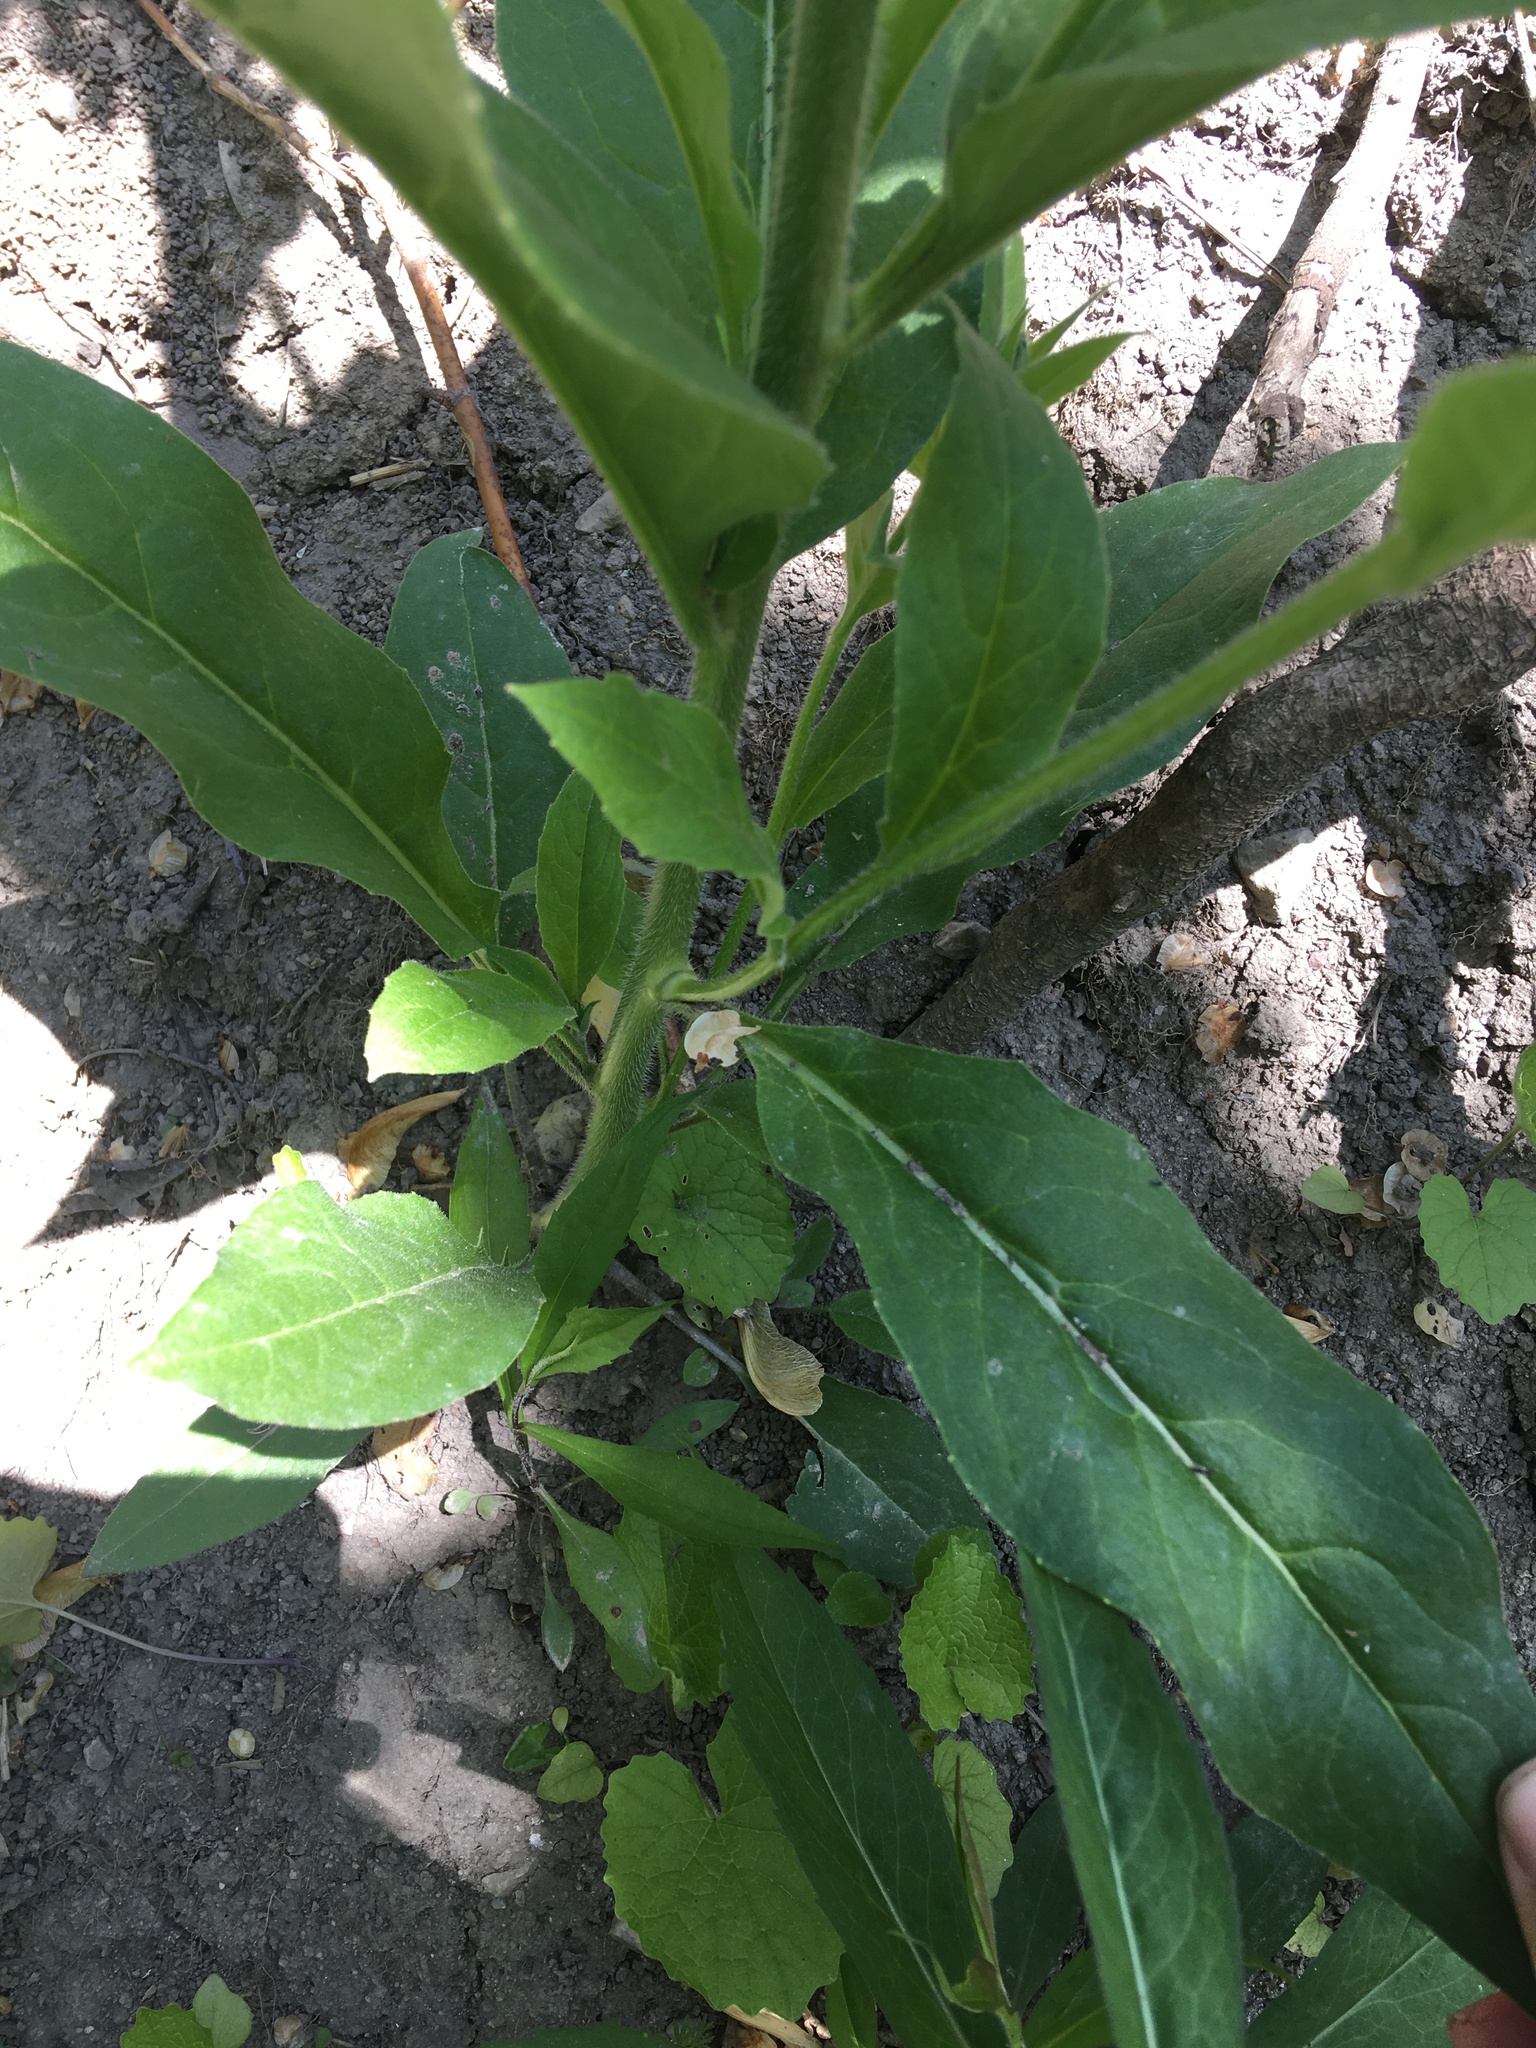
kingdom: Plantae
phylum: Tracheophyta
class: Magnoliopsida
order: Brassicales
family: Brassicaceae
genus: Hesperis
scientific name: Hesperis matronalis
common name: Dame's-violet
